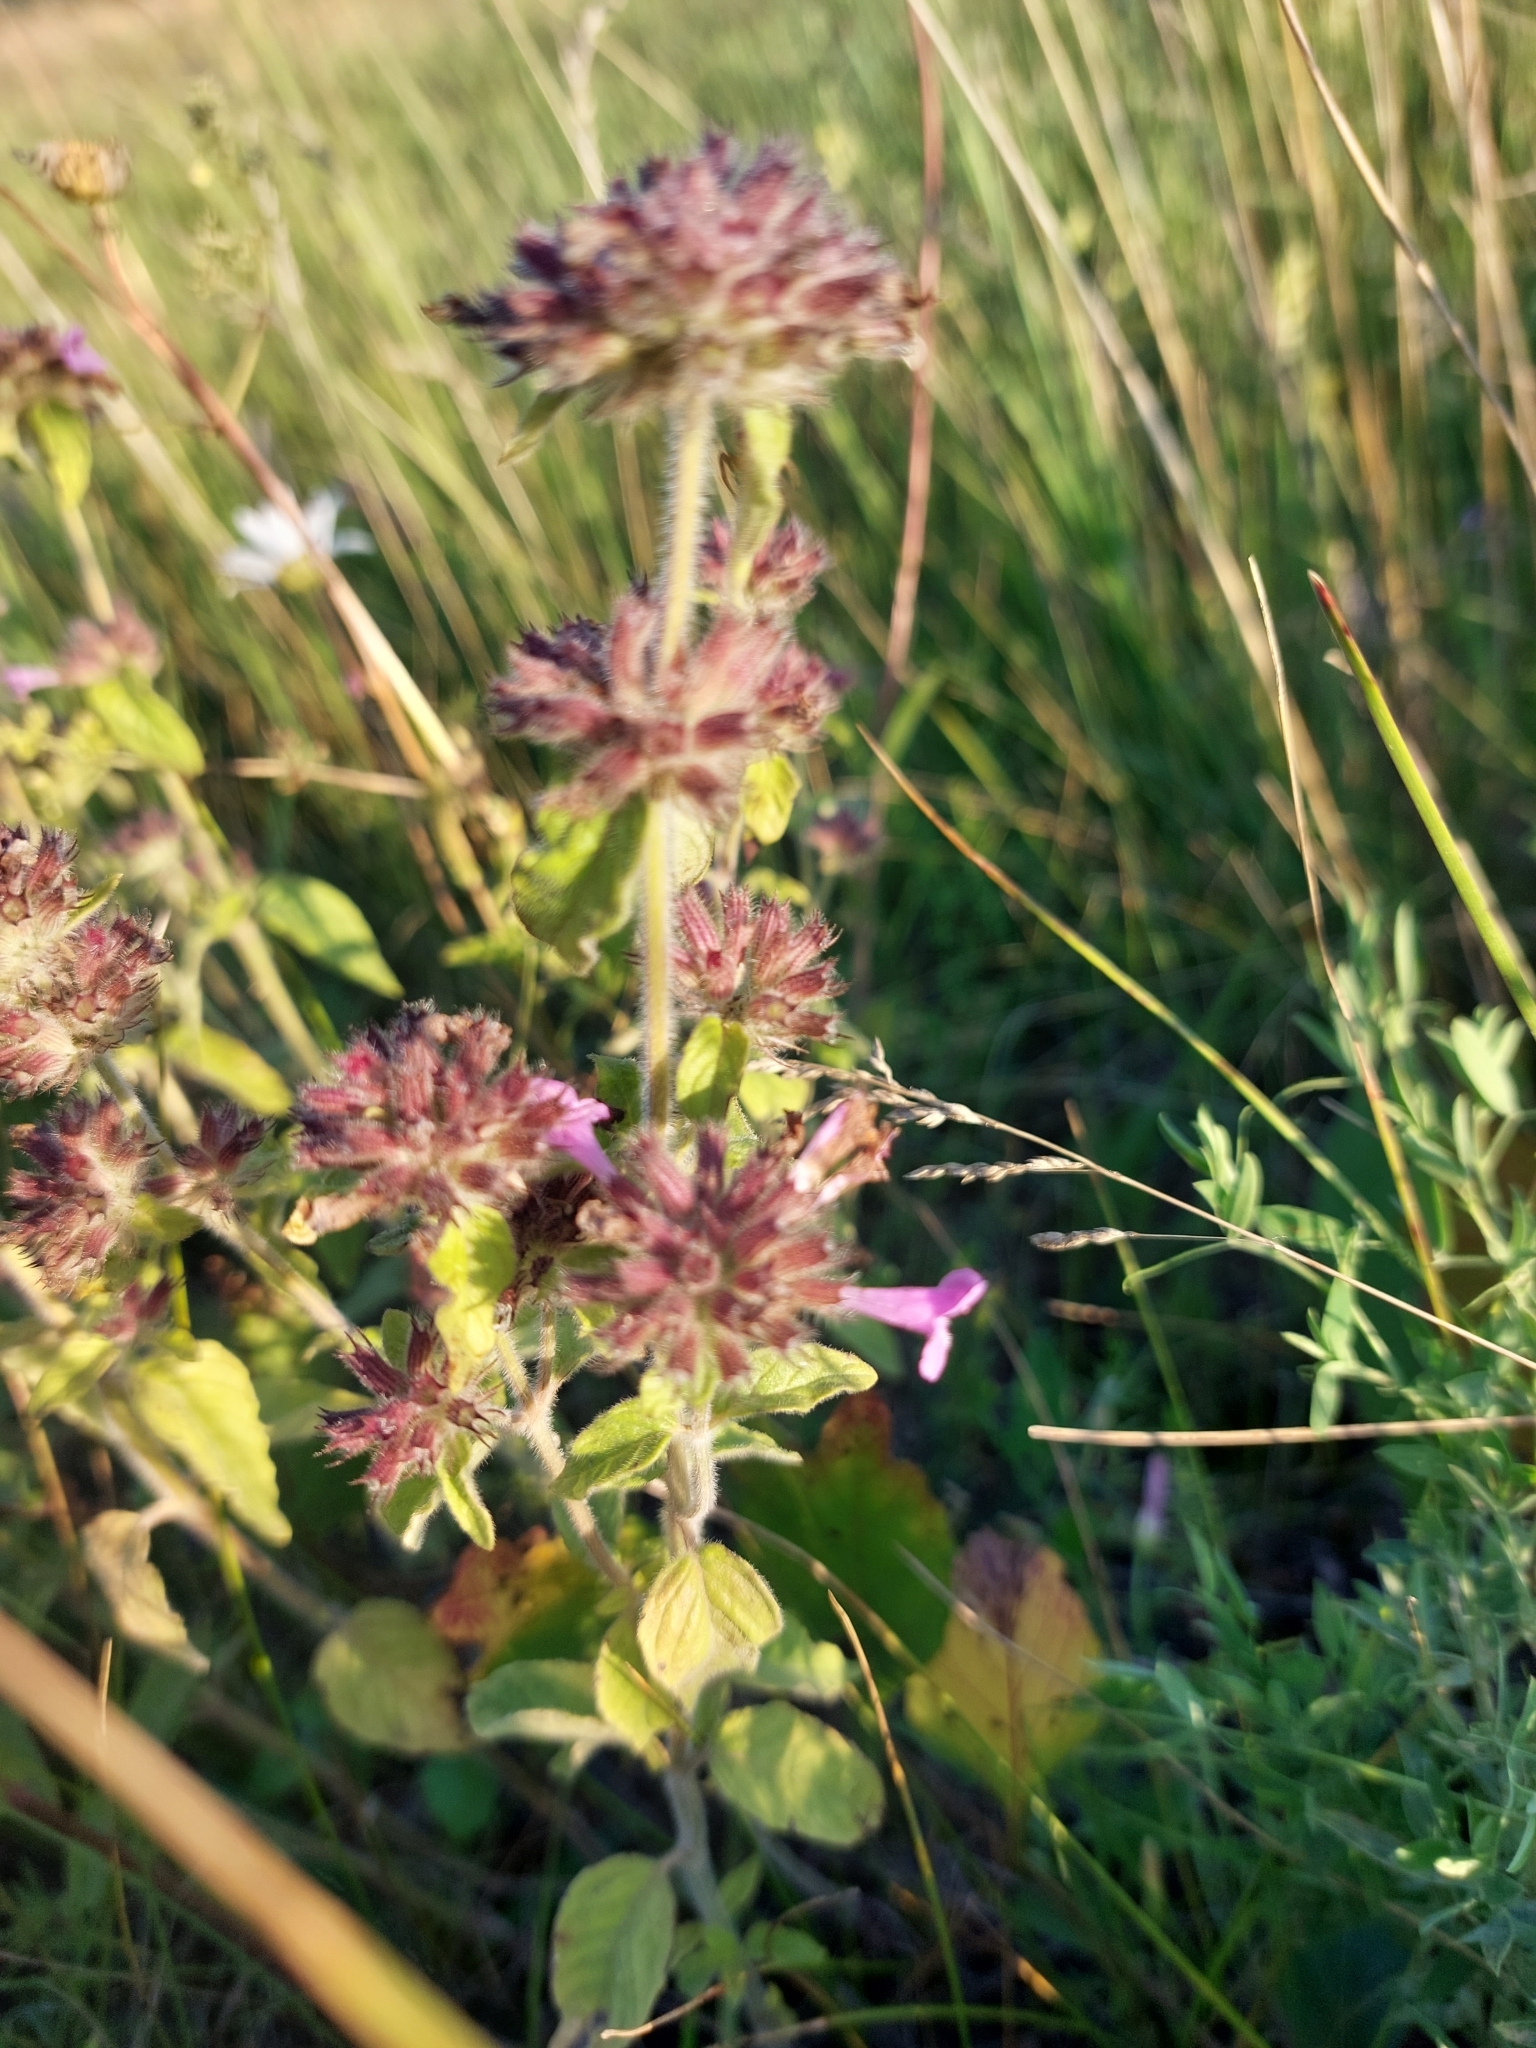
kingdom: Plantae
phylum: Tracheophyta
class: Magnoliopsida
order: Lamiales
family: Lamiaceae
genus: Clinopodium
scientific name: Clinopodium vulgare
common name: Wild basil
